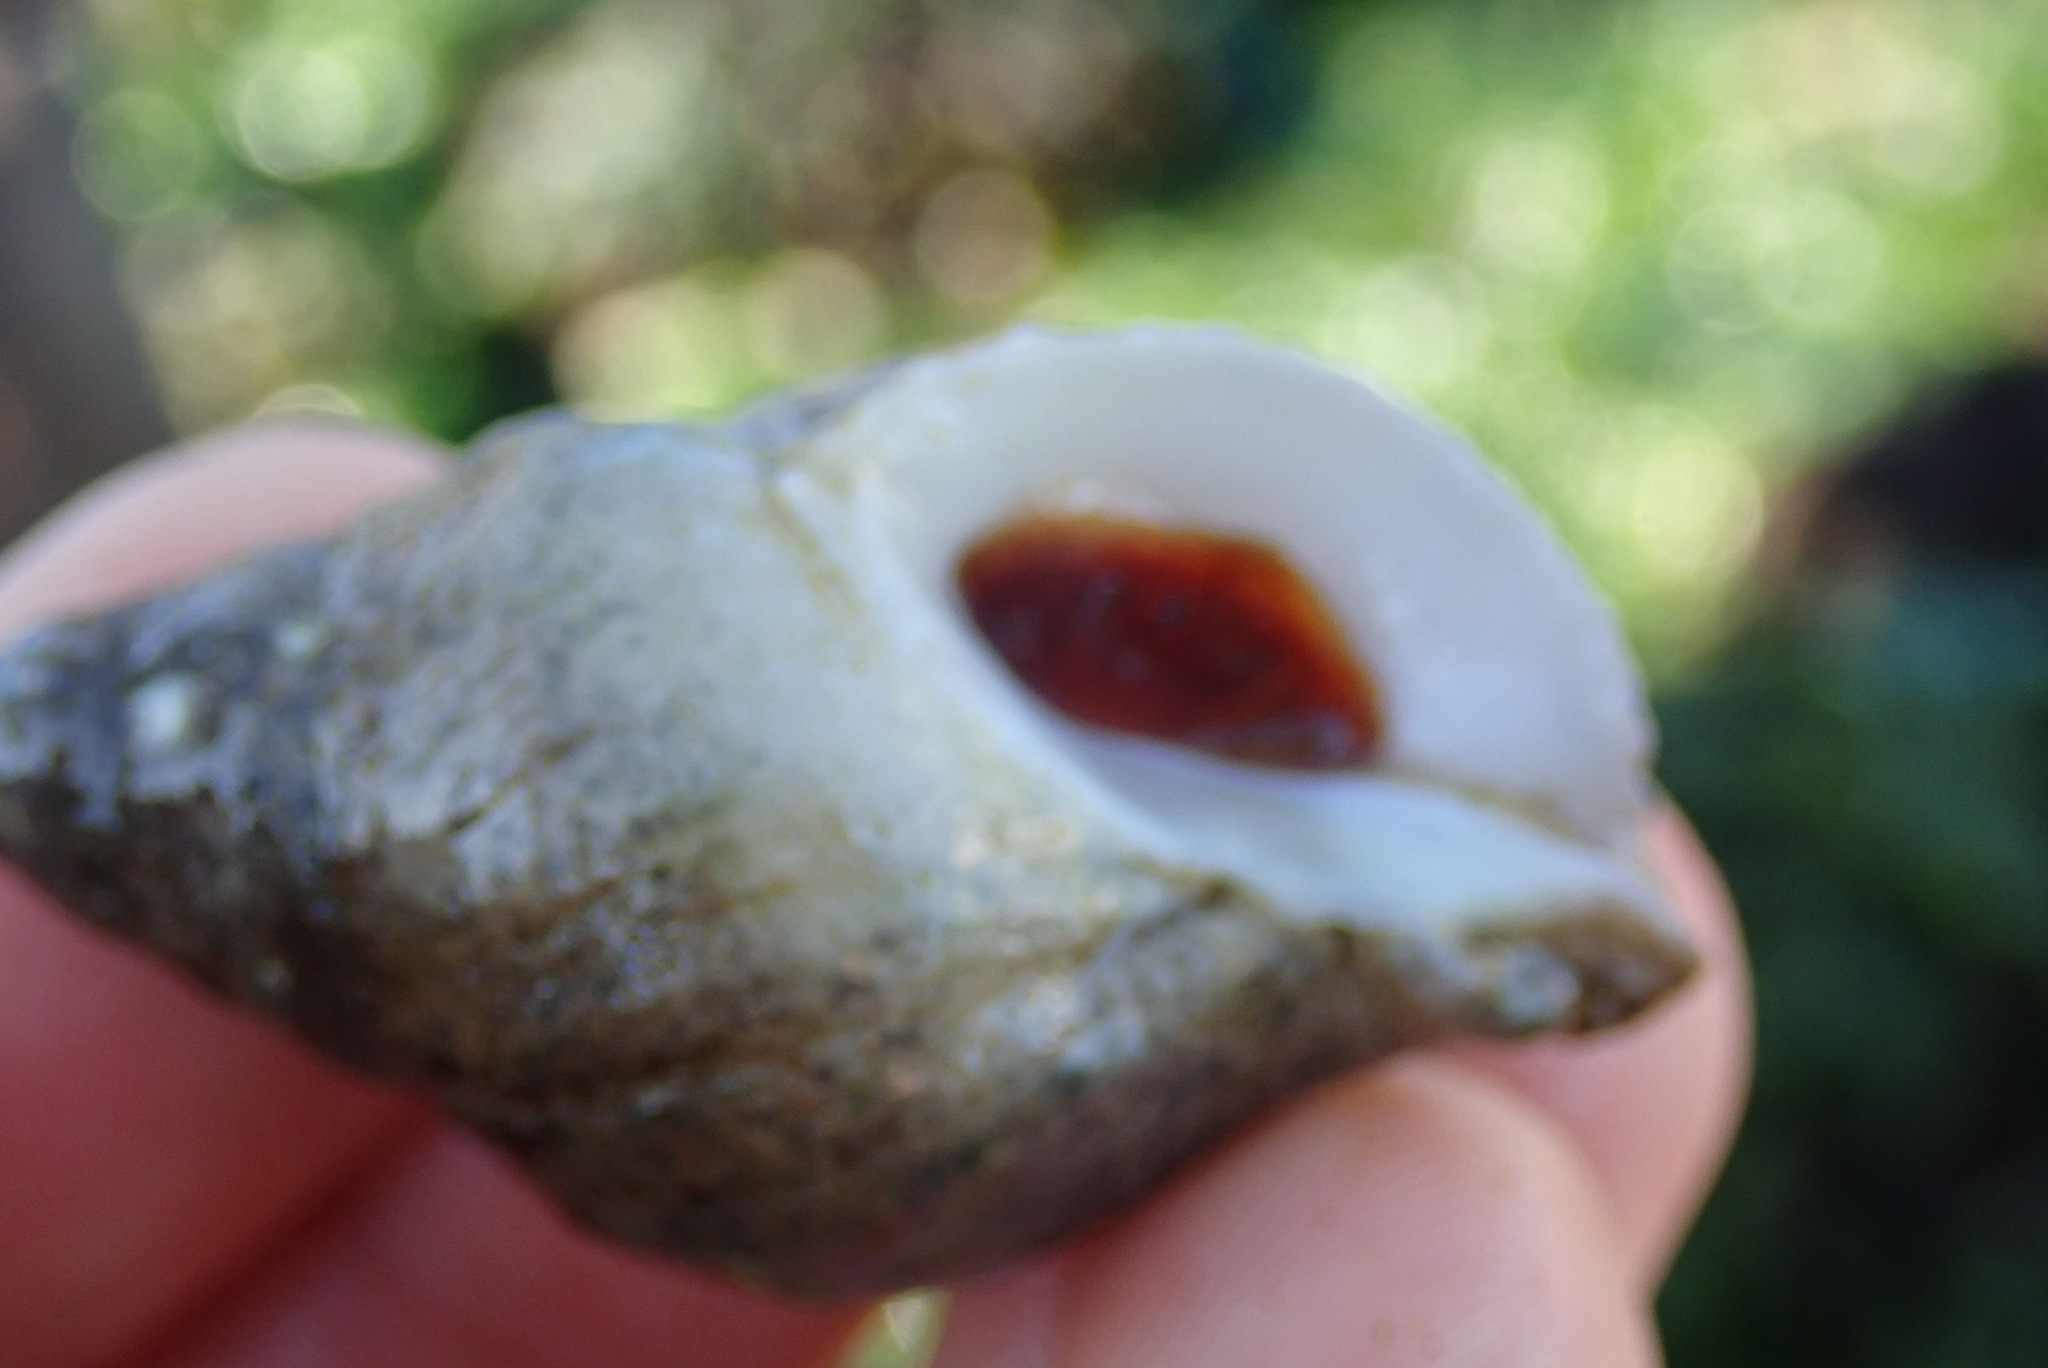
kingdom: Animalia
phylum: Mollusca
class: Gastropoda
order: Neogastropoda
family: Muricidae
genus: Nucella
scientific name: Nucella lamellosa
